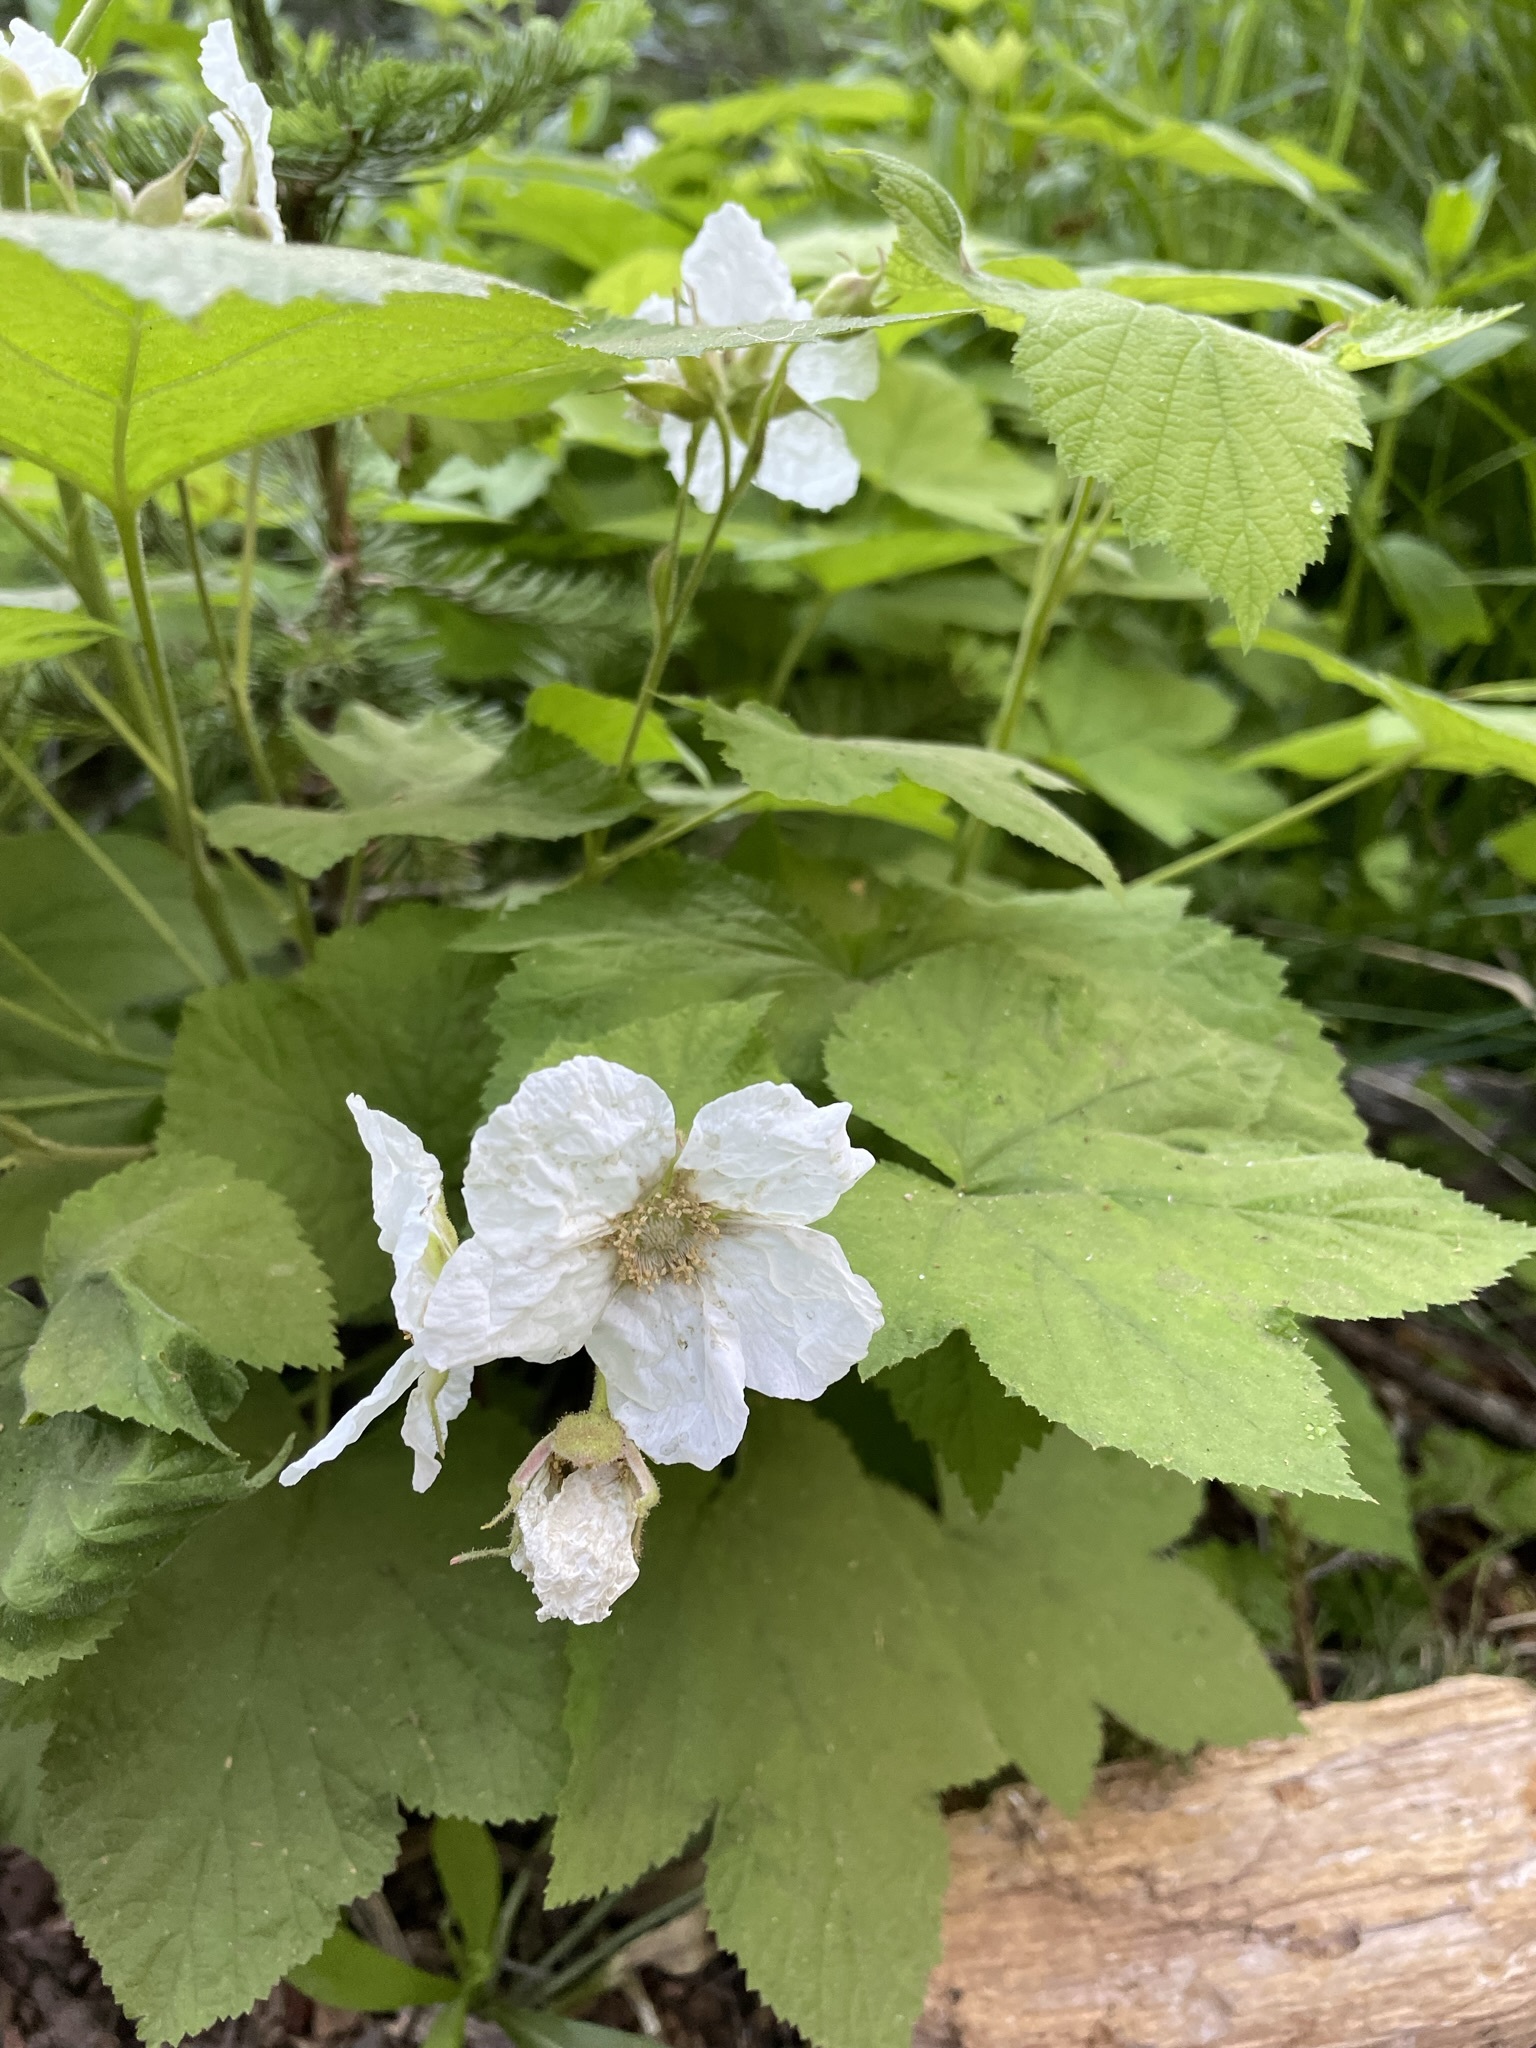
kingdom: Plantae
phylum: Tracheophyta
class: Magnoliopsida
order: Rosales
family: Rosaceae
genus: Rubus
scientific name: Rubus parviflorus
